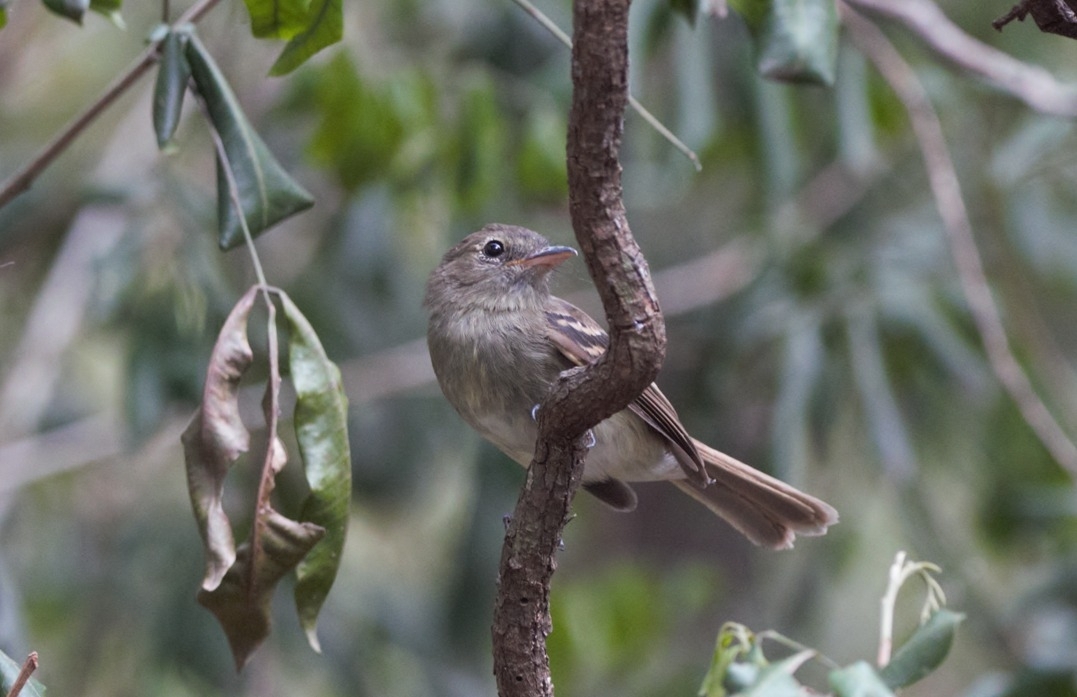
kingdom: Animalia
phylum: Chordata
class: Aves
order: Passeriformes
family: Tyrannidae
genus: Lathrotriccus
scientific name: Lathrotriccus euleri
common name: Euler's flycatcher
